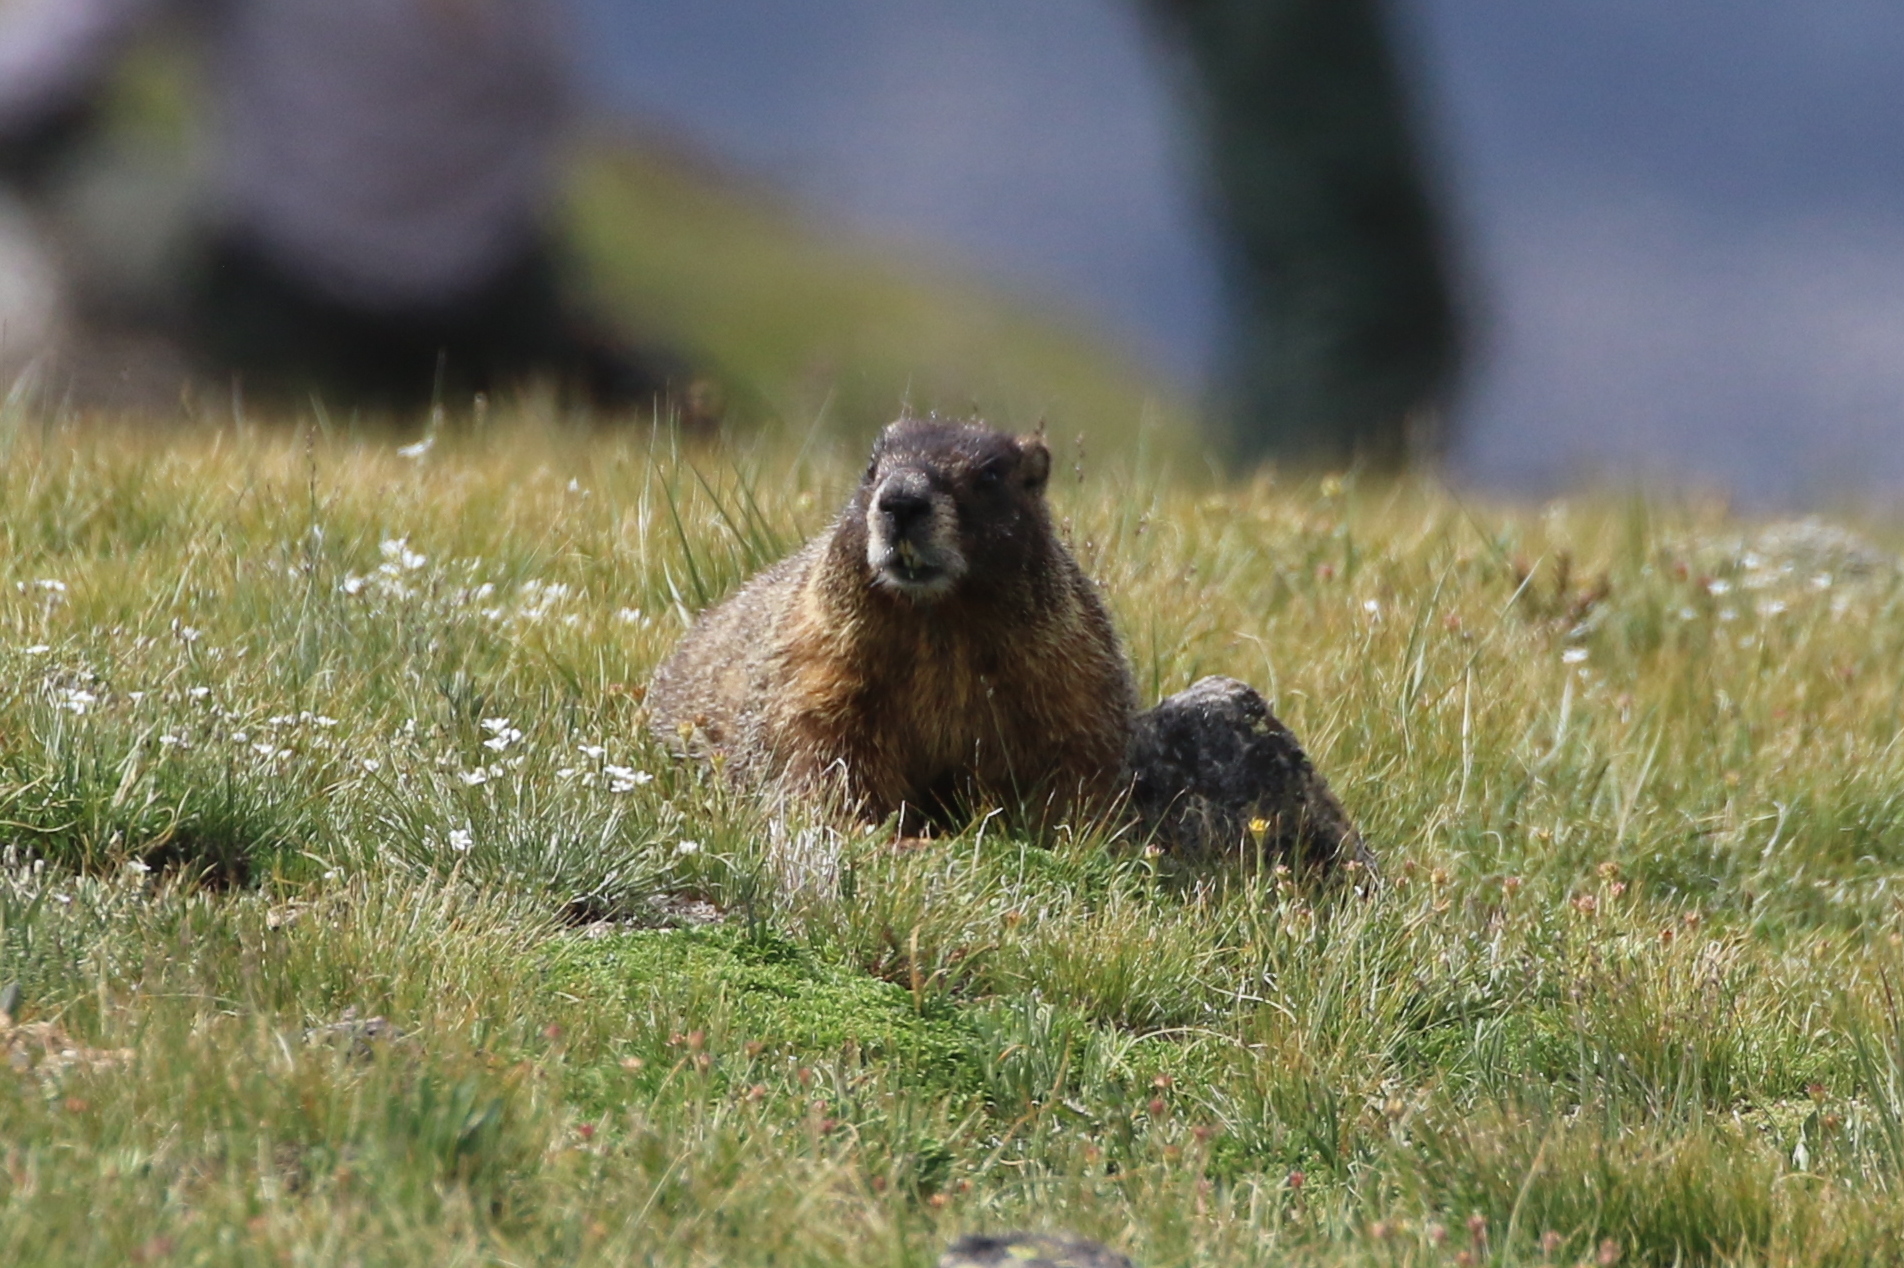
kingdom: Animalia
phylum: Chordata
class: Mammalia
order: Rodentia
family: Sciuridae
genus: Marmota
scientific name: Marmota flaviventris
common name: Yellow-bellied marmot
